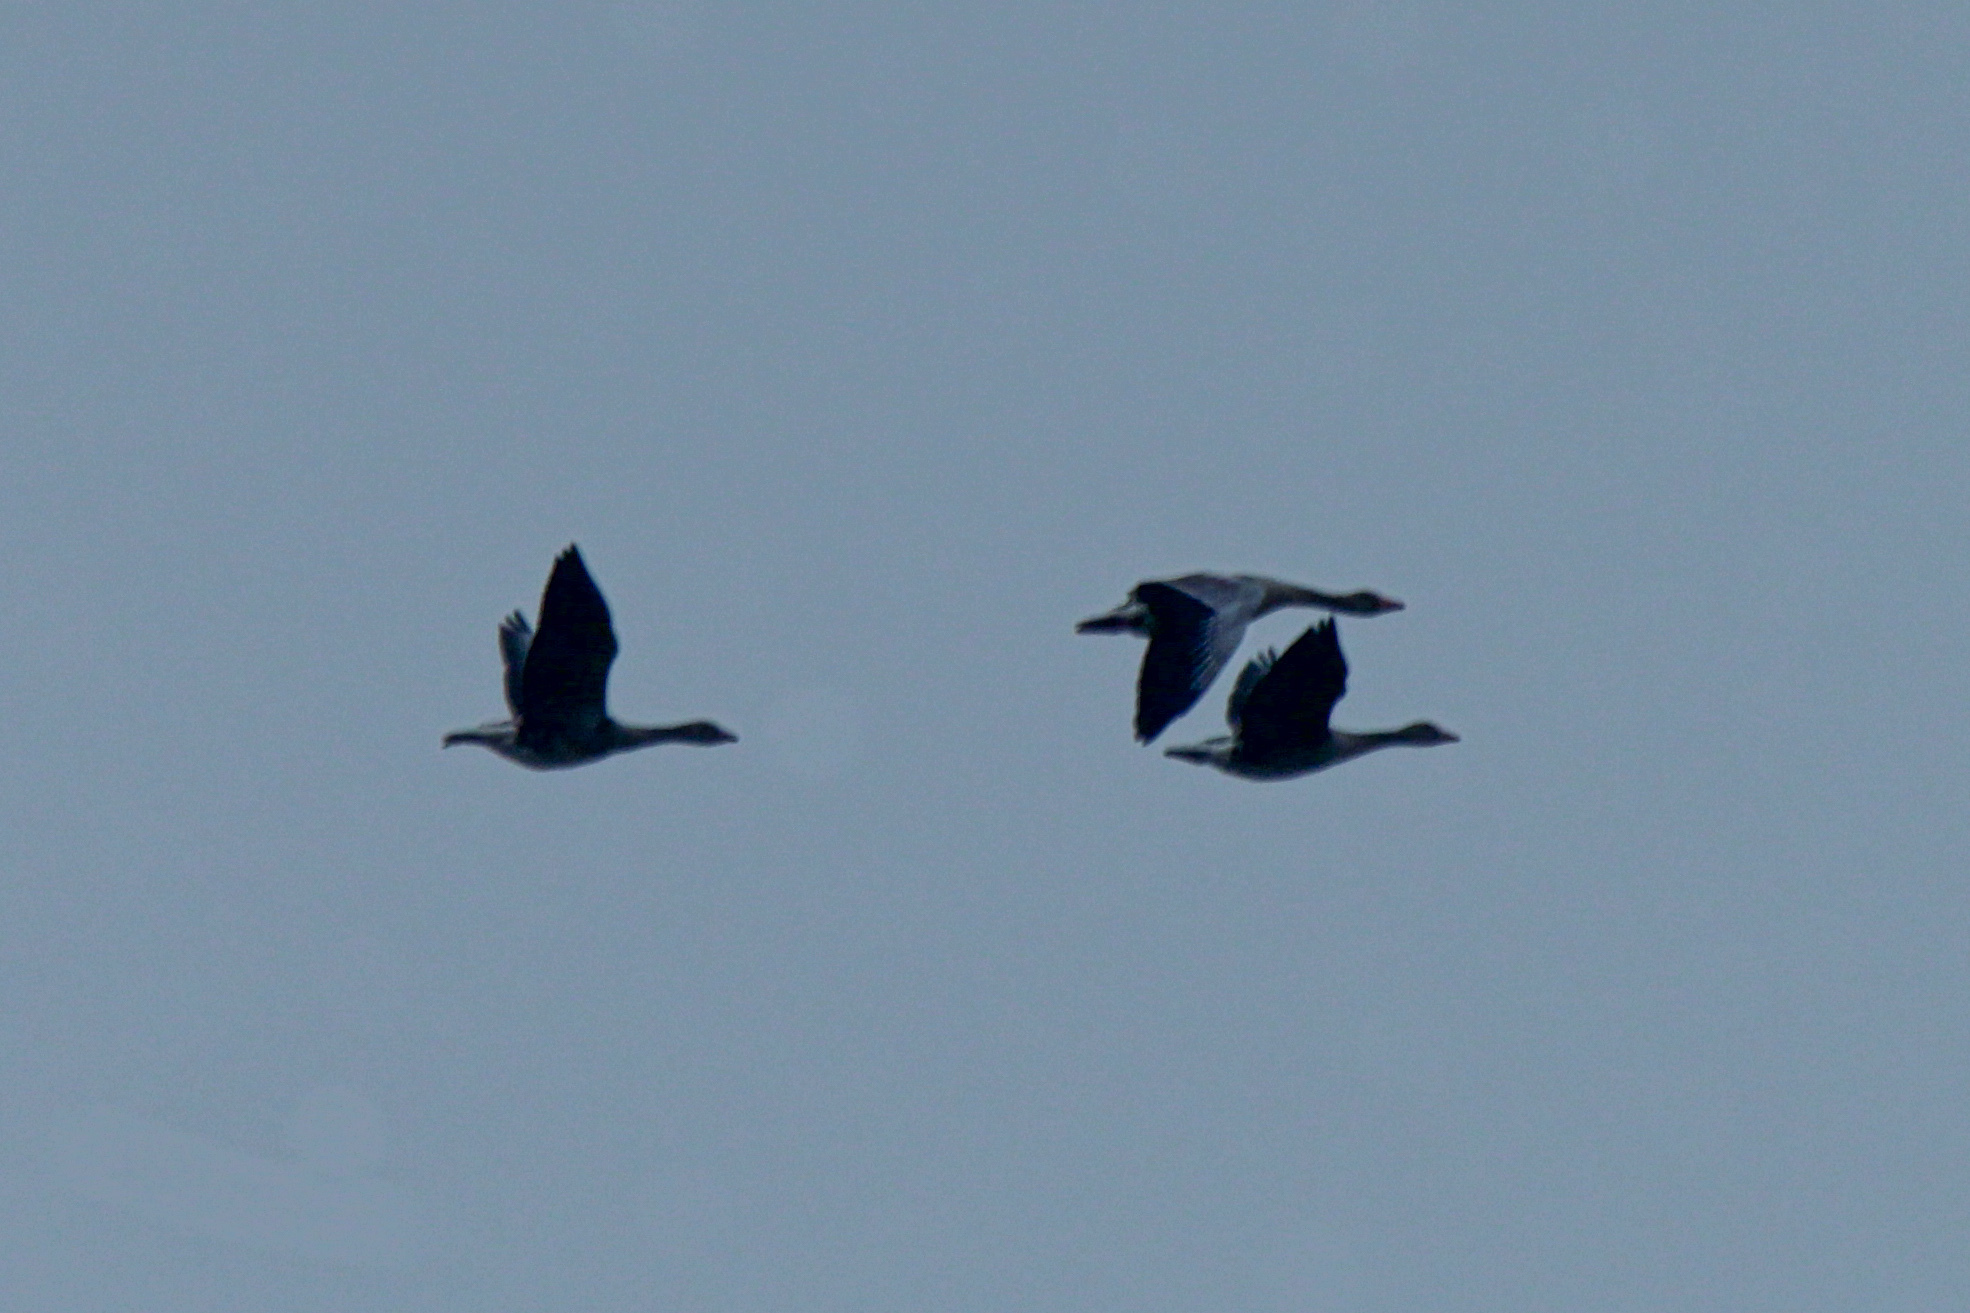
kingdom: Animalia
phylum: Chordata
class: Aves
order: Anseriformes
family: Anatidae
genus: Anser
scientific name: Anser anser
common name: Greylag goose
